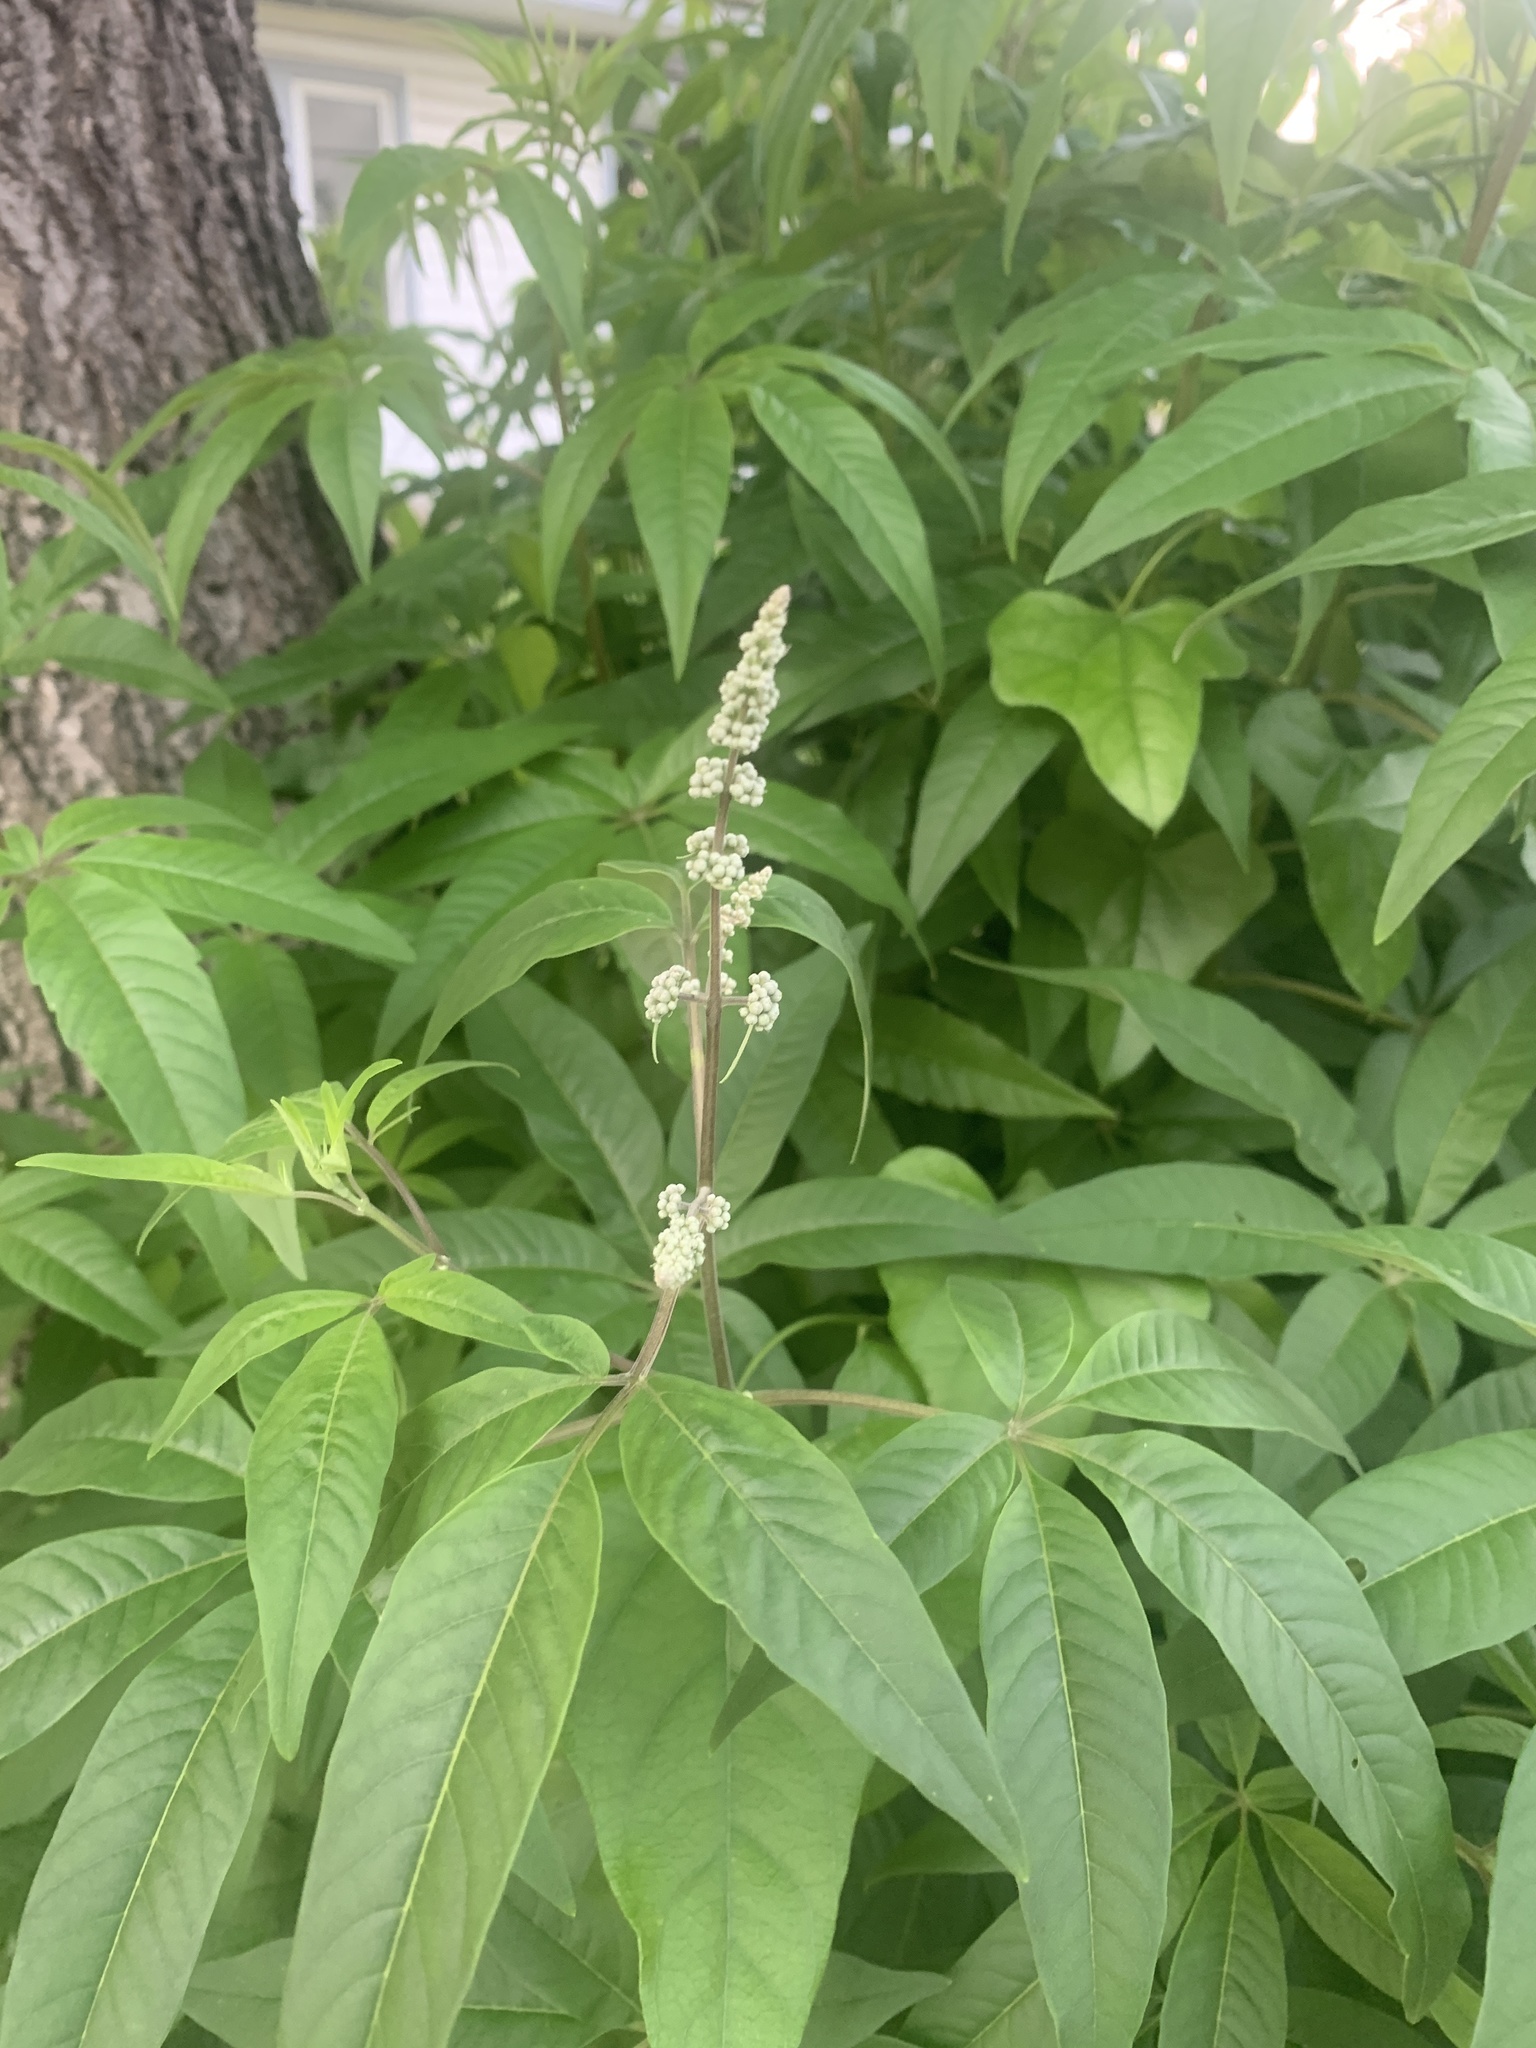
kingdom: Plantae
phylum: Tracheophyta
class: Magnoliopsida
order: Lamiales
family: Lamiaceae
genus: Vitex
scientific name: Vitex agnus-castus
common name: Chasteberry
